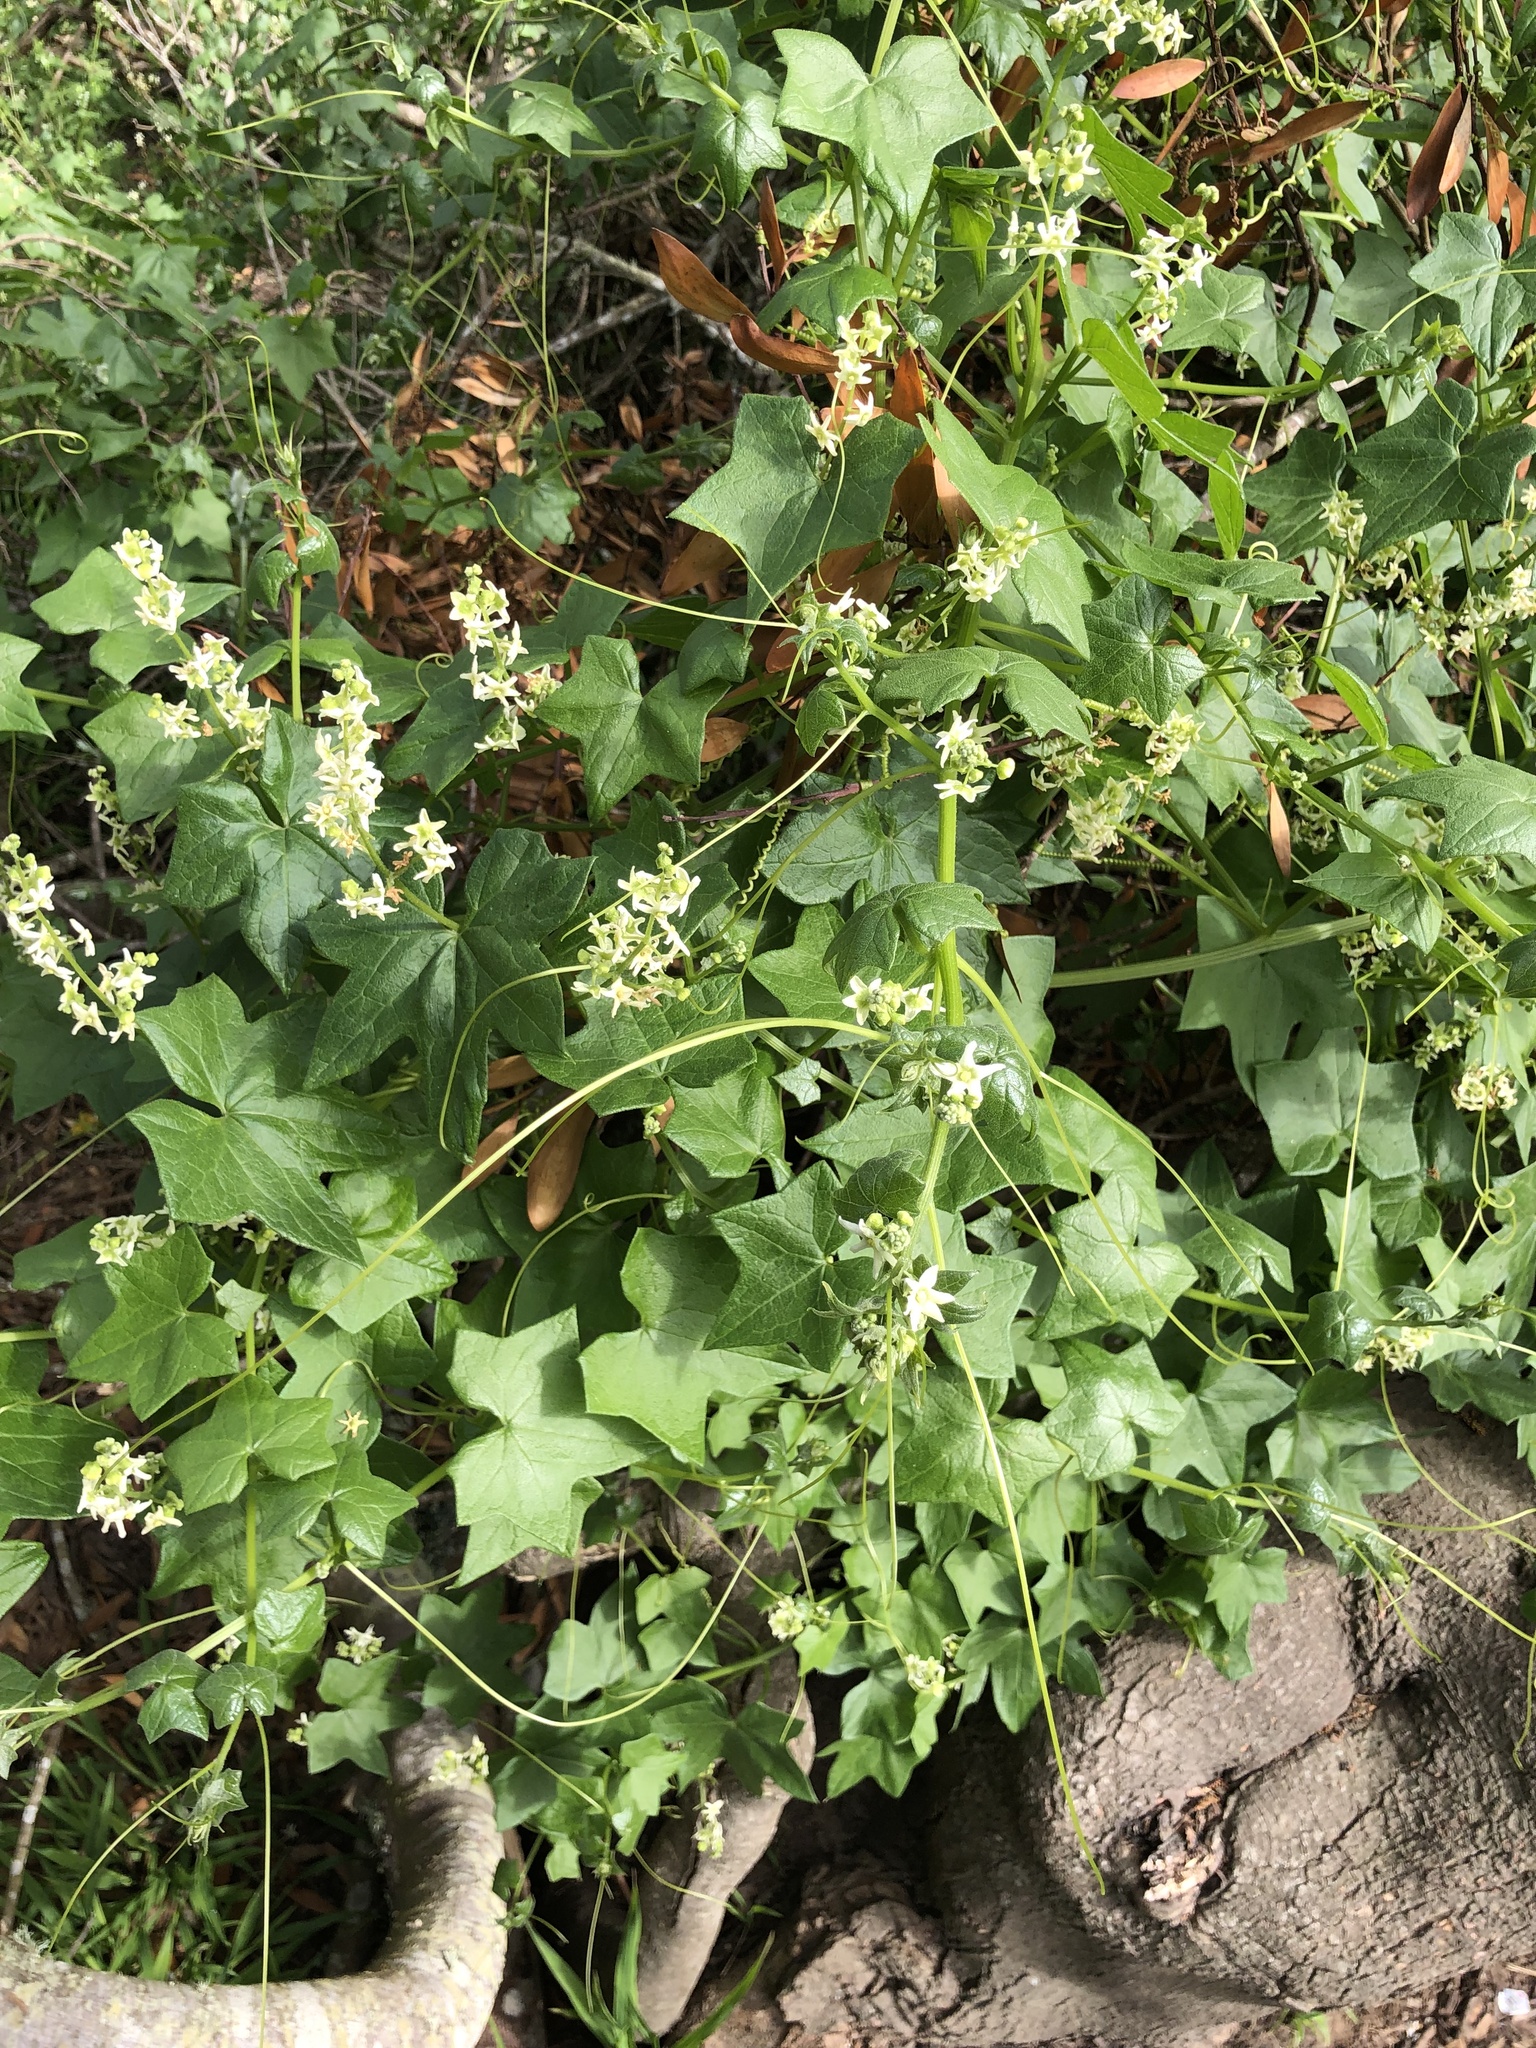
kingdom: Plantae
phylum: Tracheophyta
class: Magnoliopsida
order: Cucurbitales
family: Cucurbitaceae
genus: Marah
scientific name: Marah fabacea
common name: California manroot
